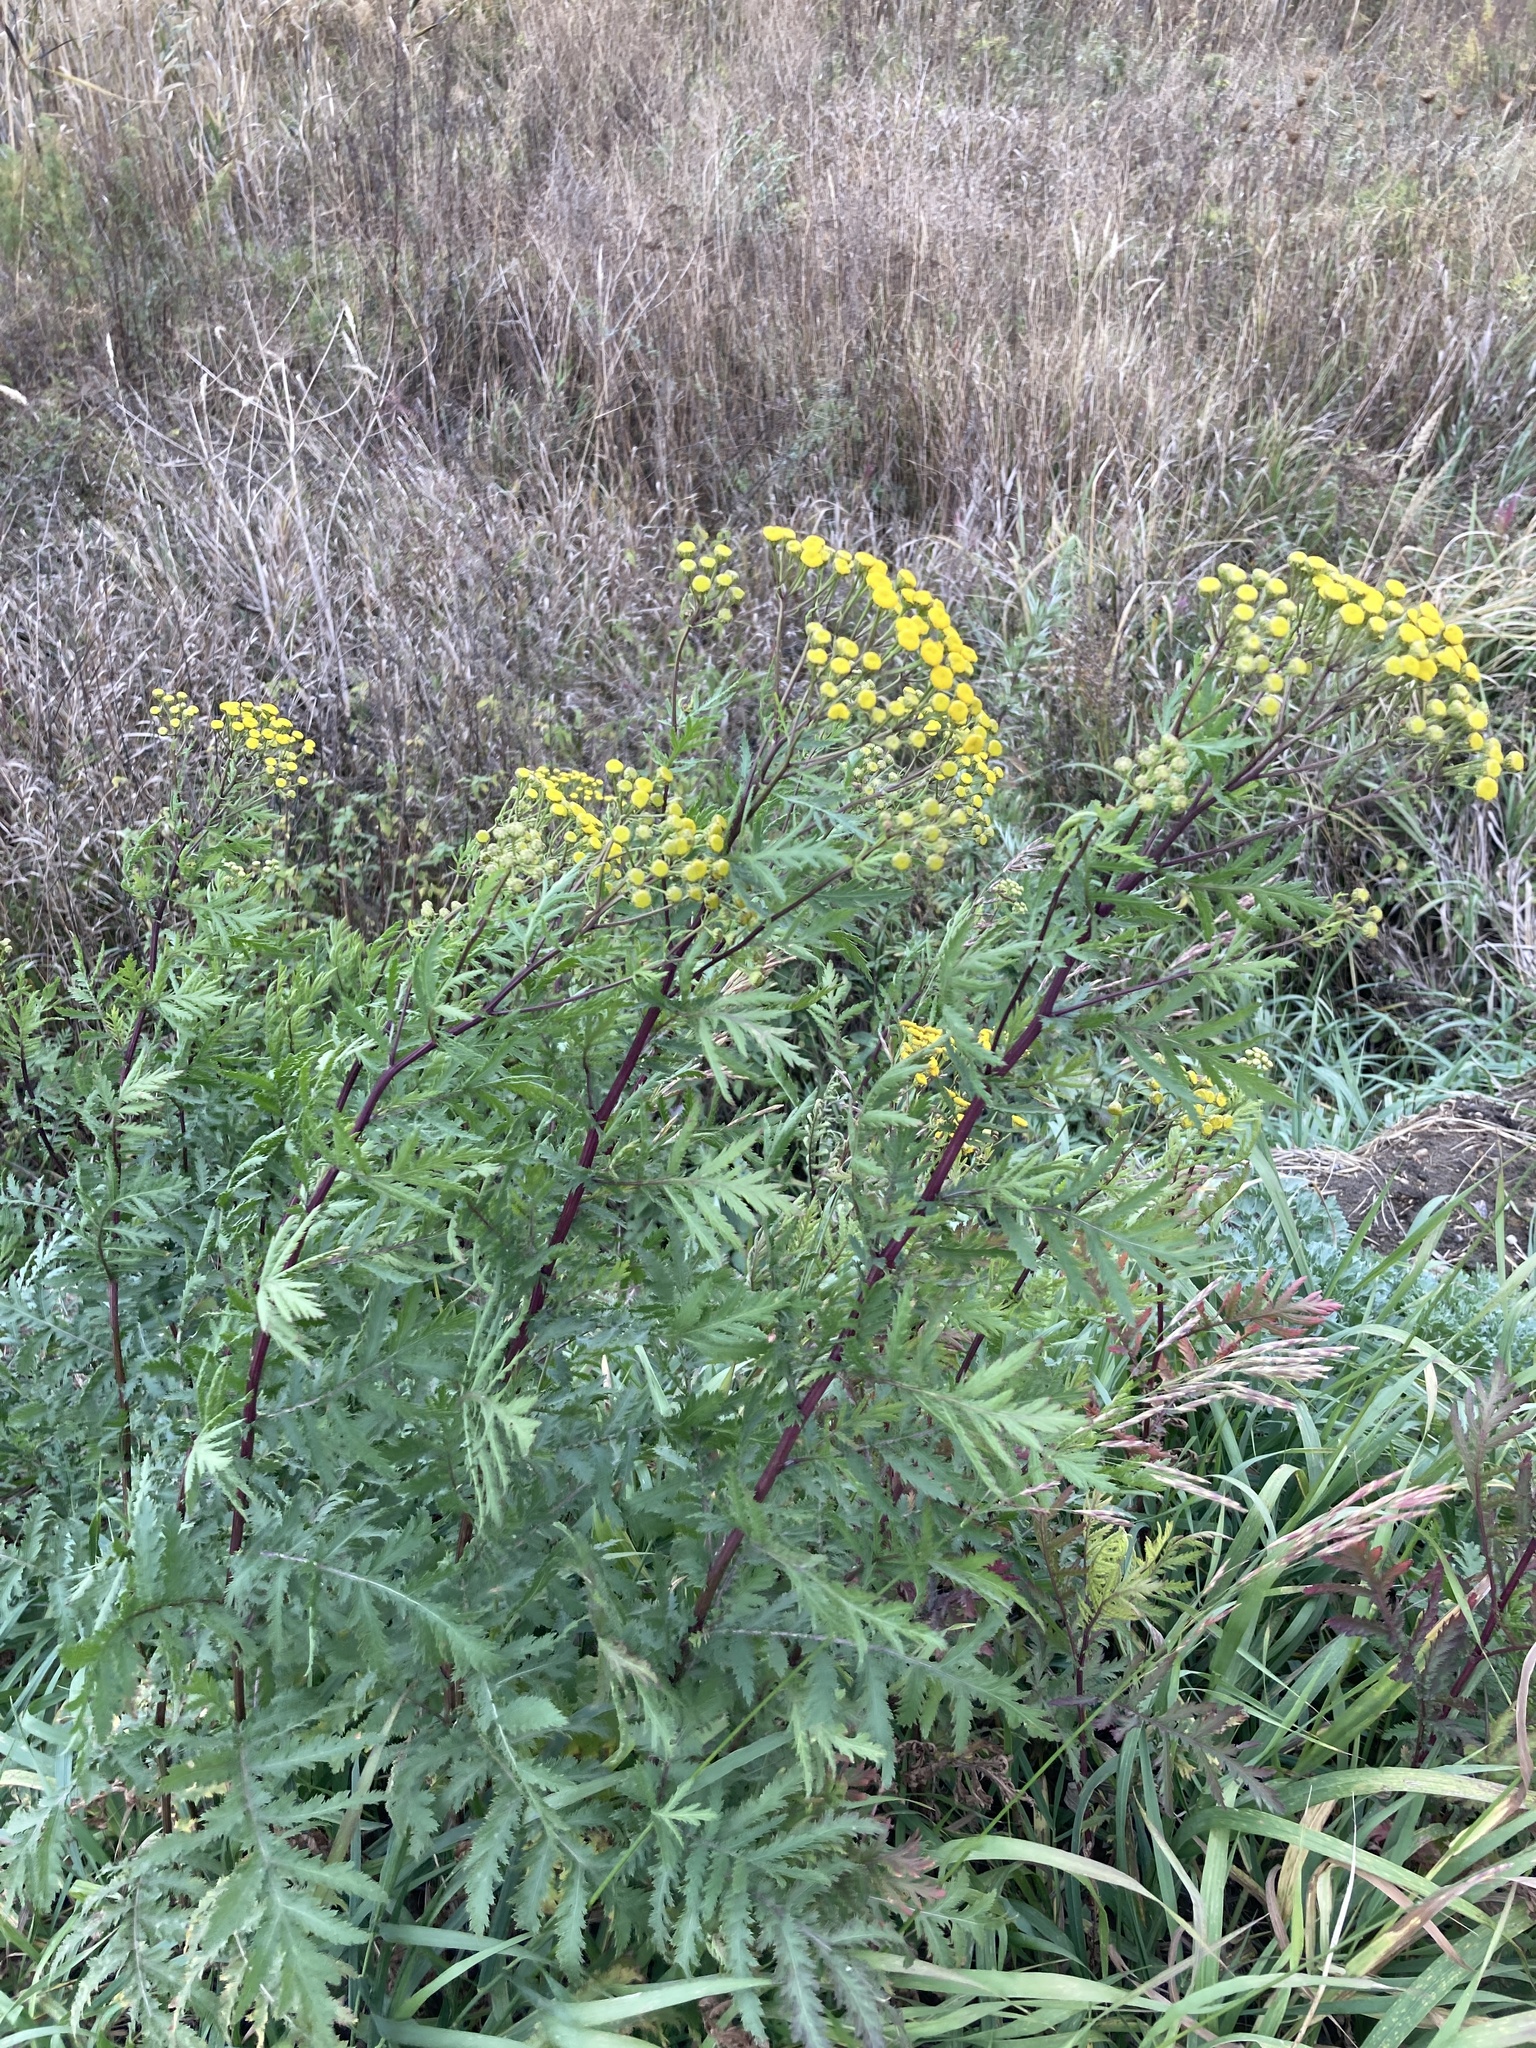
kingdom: Plantae
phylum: Tracheophyta
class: Magnoliopsida
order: Asterales
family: Asteraceae
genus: Tanacetum
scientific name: Tanacetum vulgare
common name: Common tansy
